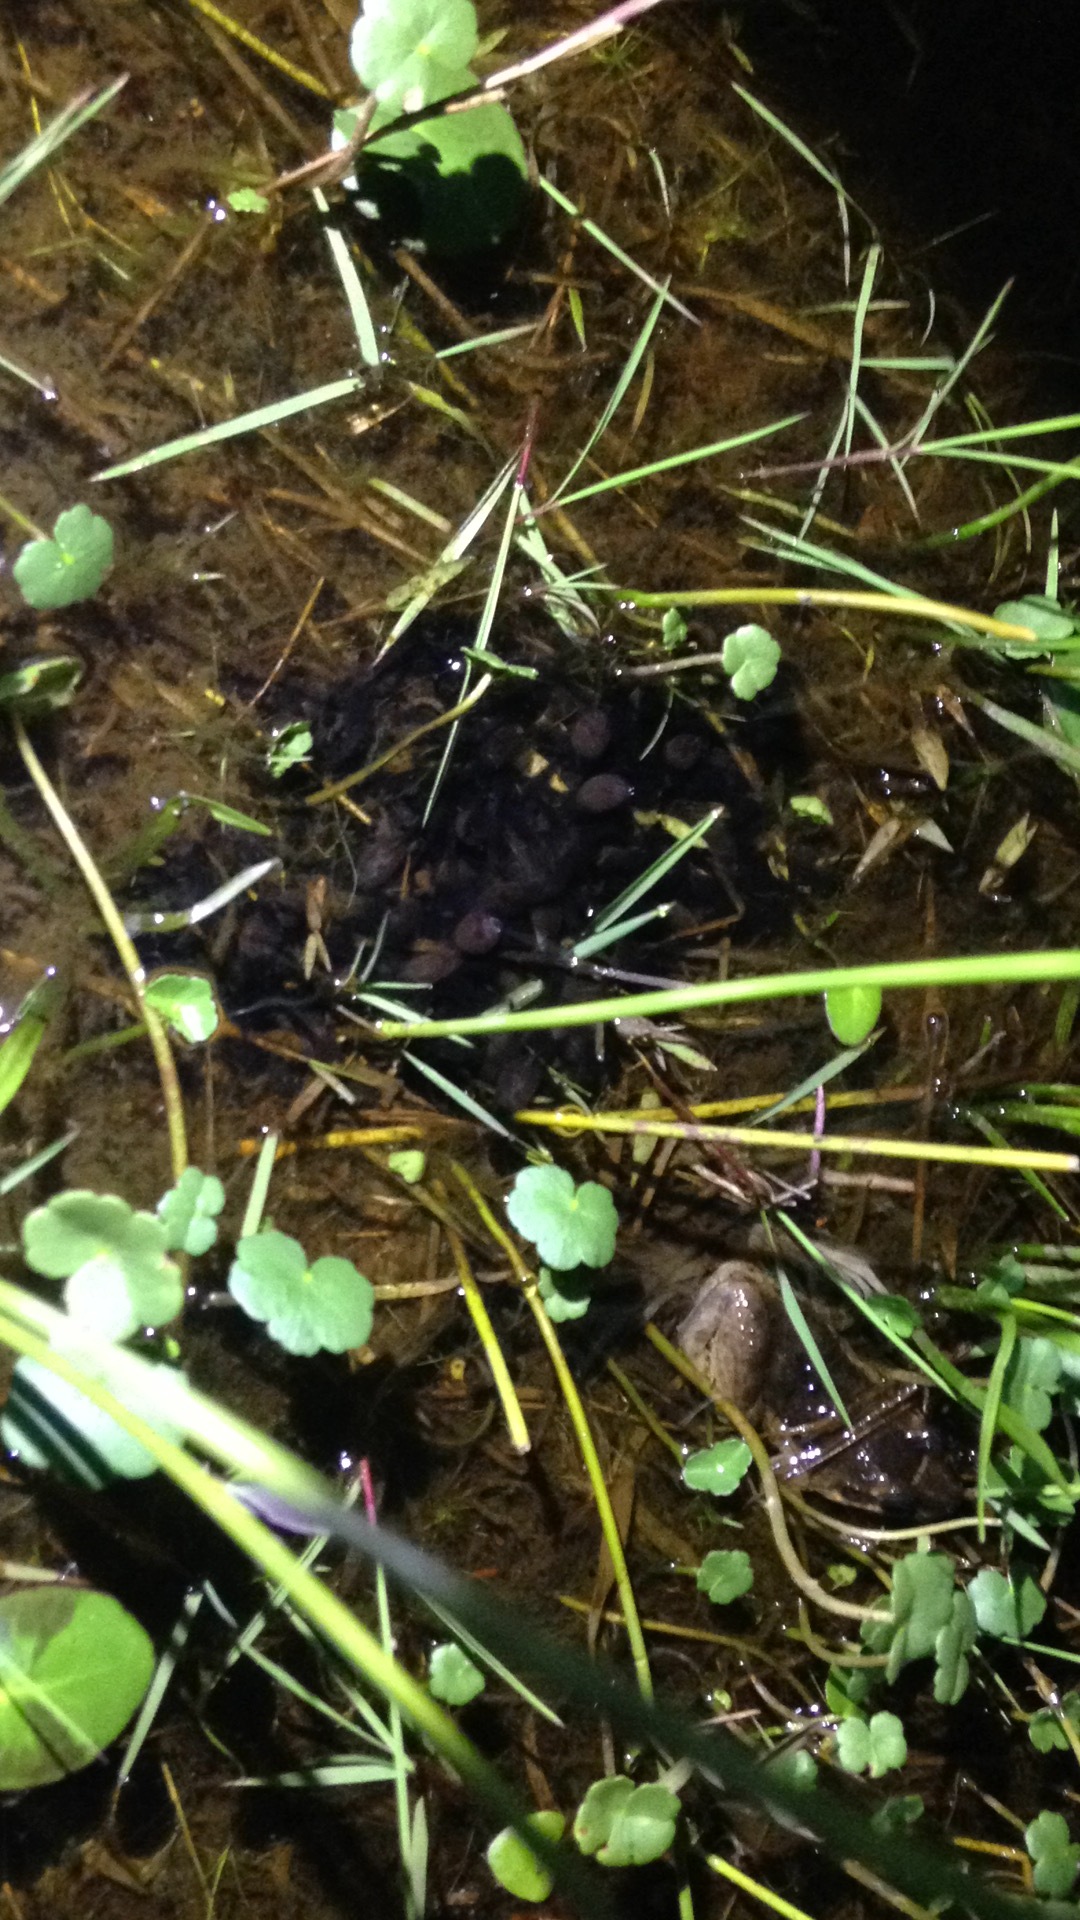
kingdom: Animalia
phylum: Chordata
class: Amphibia
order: Anura
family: Leptodactylidae
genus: Leptodactylus
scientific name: Leptodactylus podicipinus
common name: Pointedbelly frog
